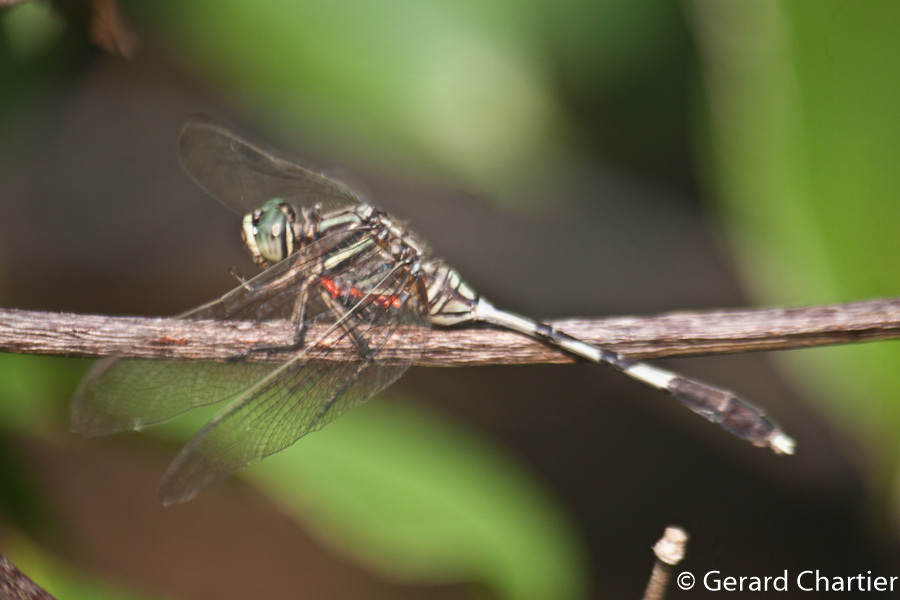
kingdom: Animalia
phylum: Arthropoda
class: Insecta
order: Odonata
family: Libellulidae
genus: Orthetrum
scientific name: Orthetrum sabina
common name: Slender skimmer
